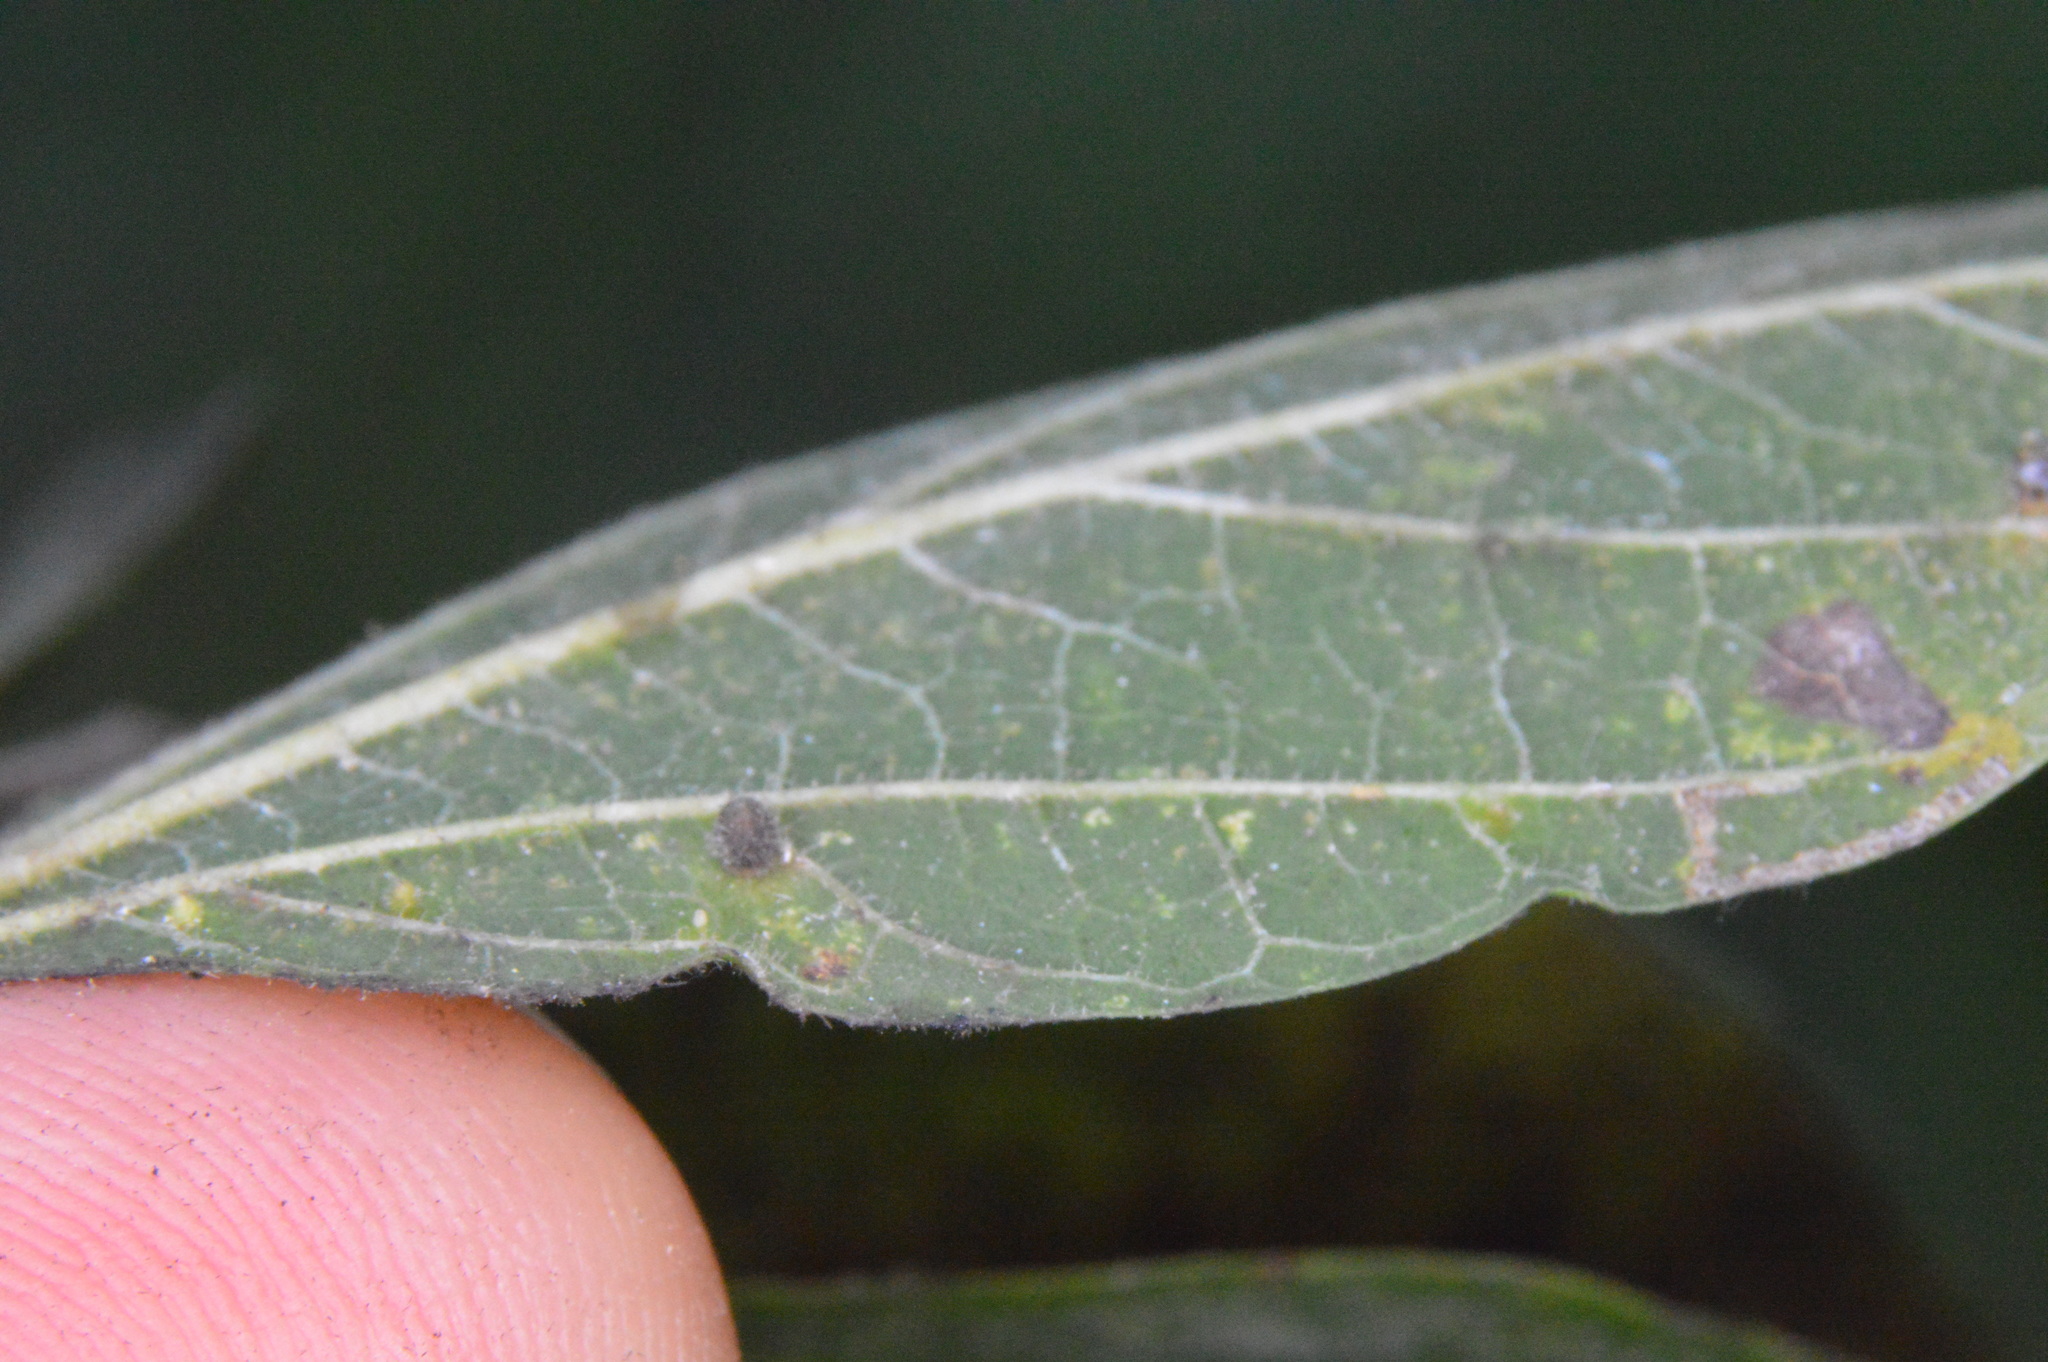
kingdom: Animalia
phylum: Arthropoda
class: Insecta
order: Diptera
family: Cecidomyiidae
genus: Celticecis
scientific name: Celticecis cupiformis
